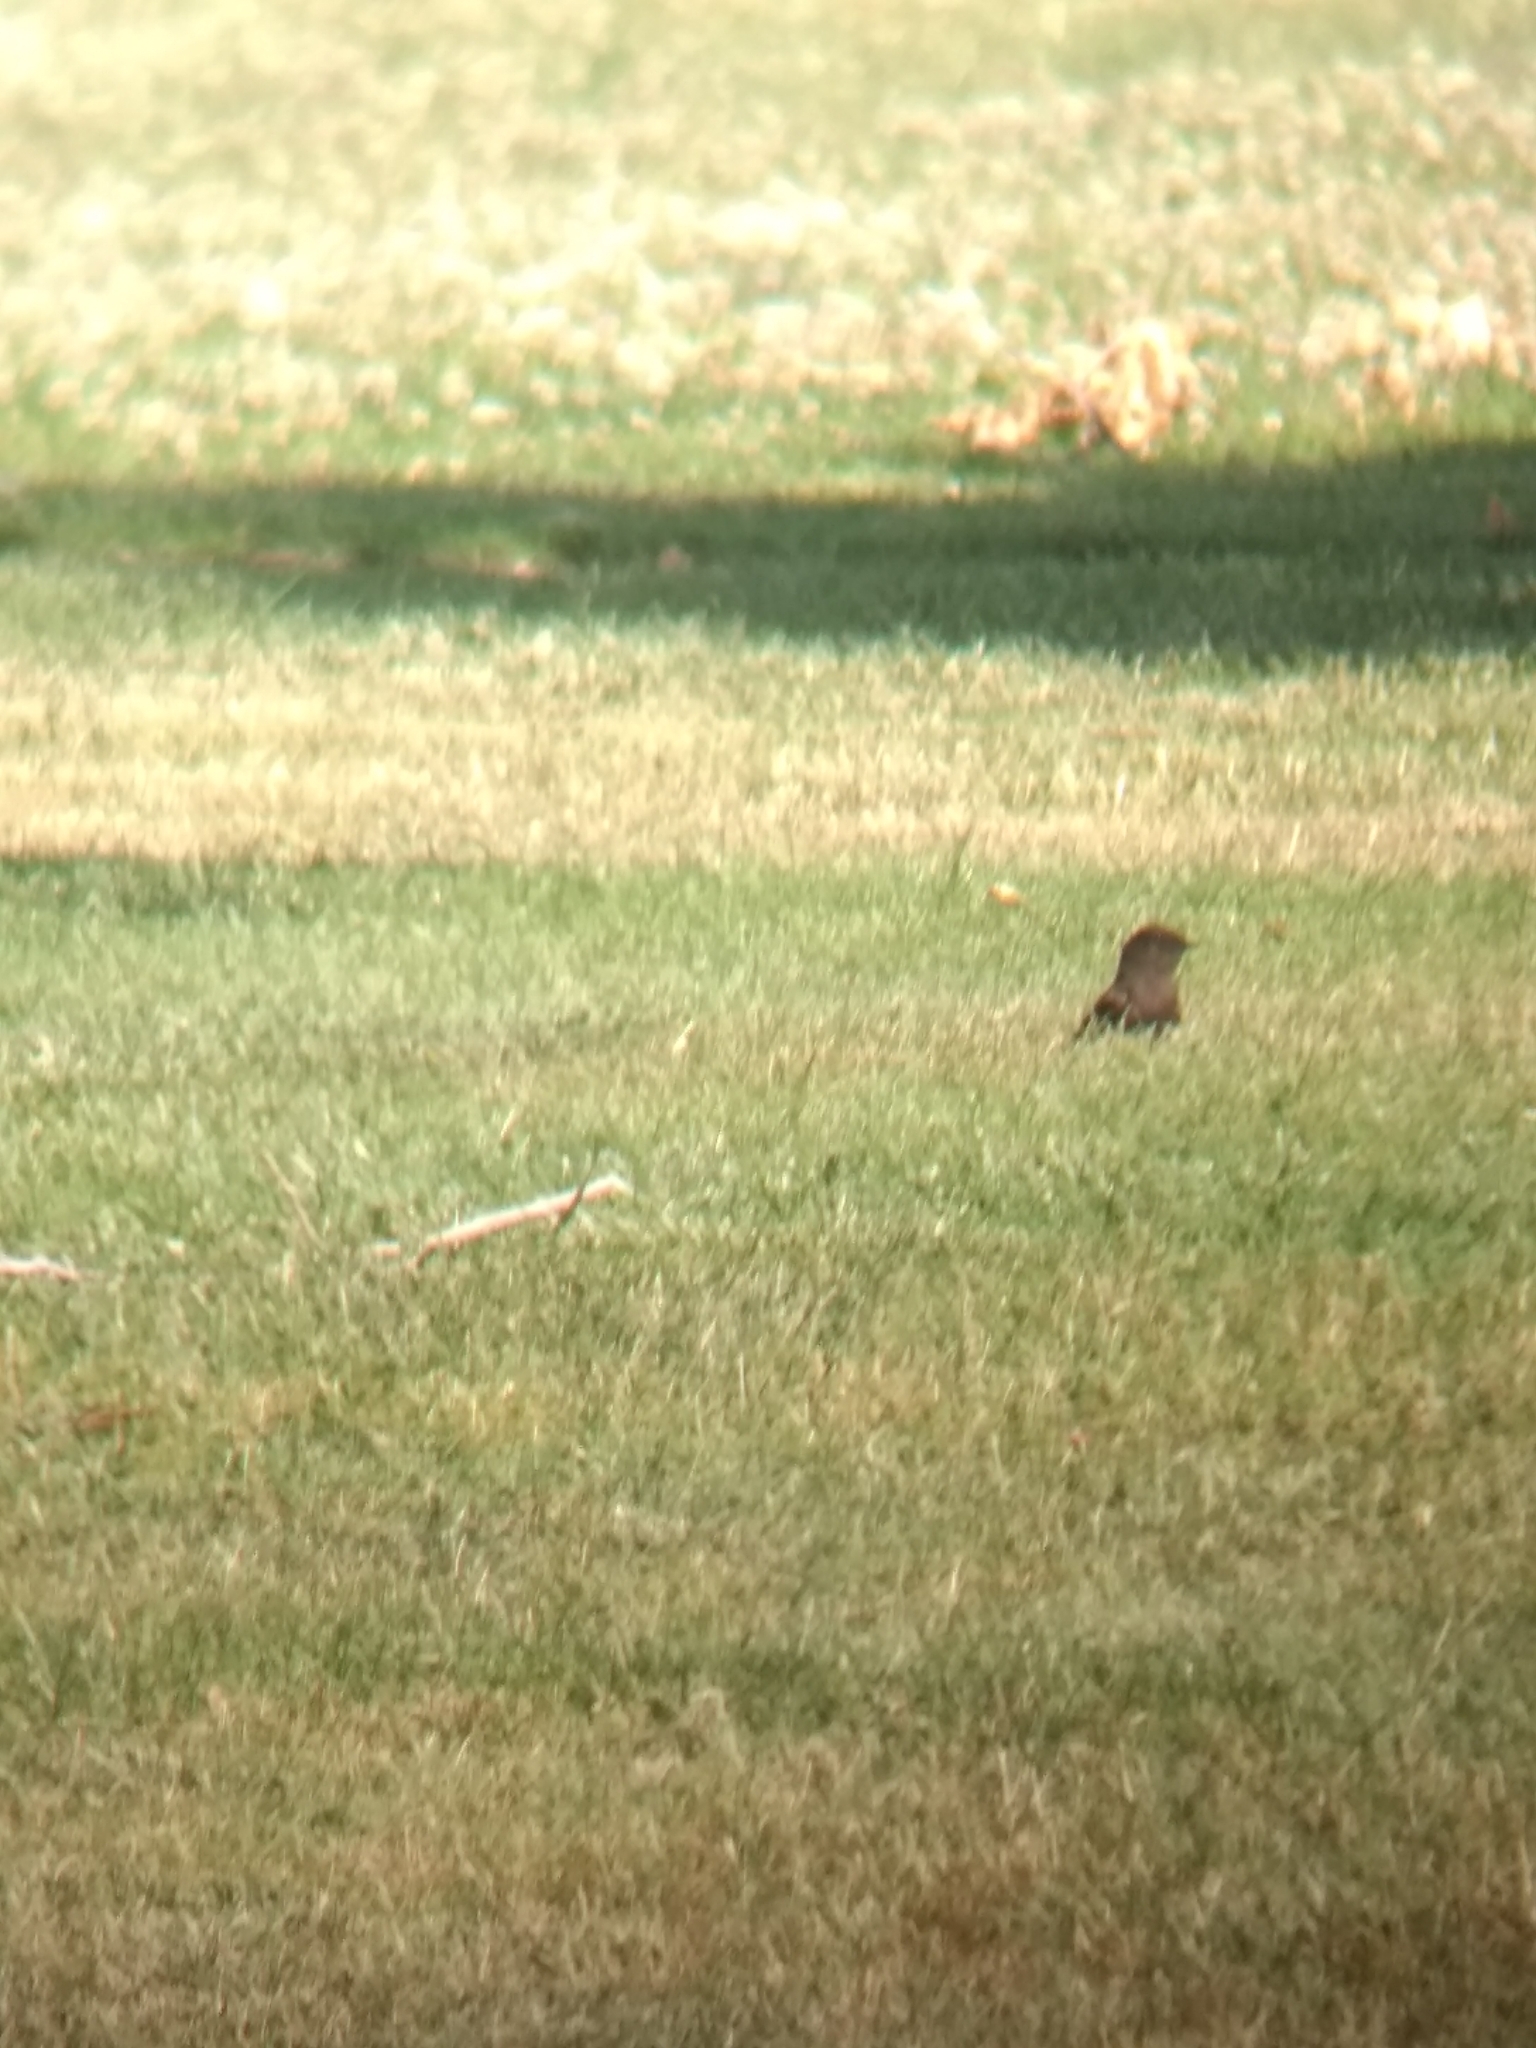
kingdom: Animalia
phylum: Chordata
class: Aves
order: Passeriformes
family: Tyrannidae
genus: Sayornis
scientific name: Sayornis nigricans
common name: Black phoebe
